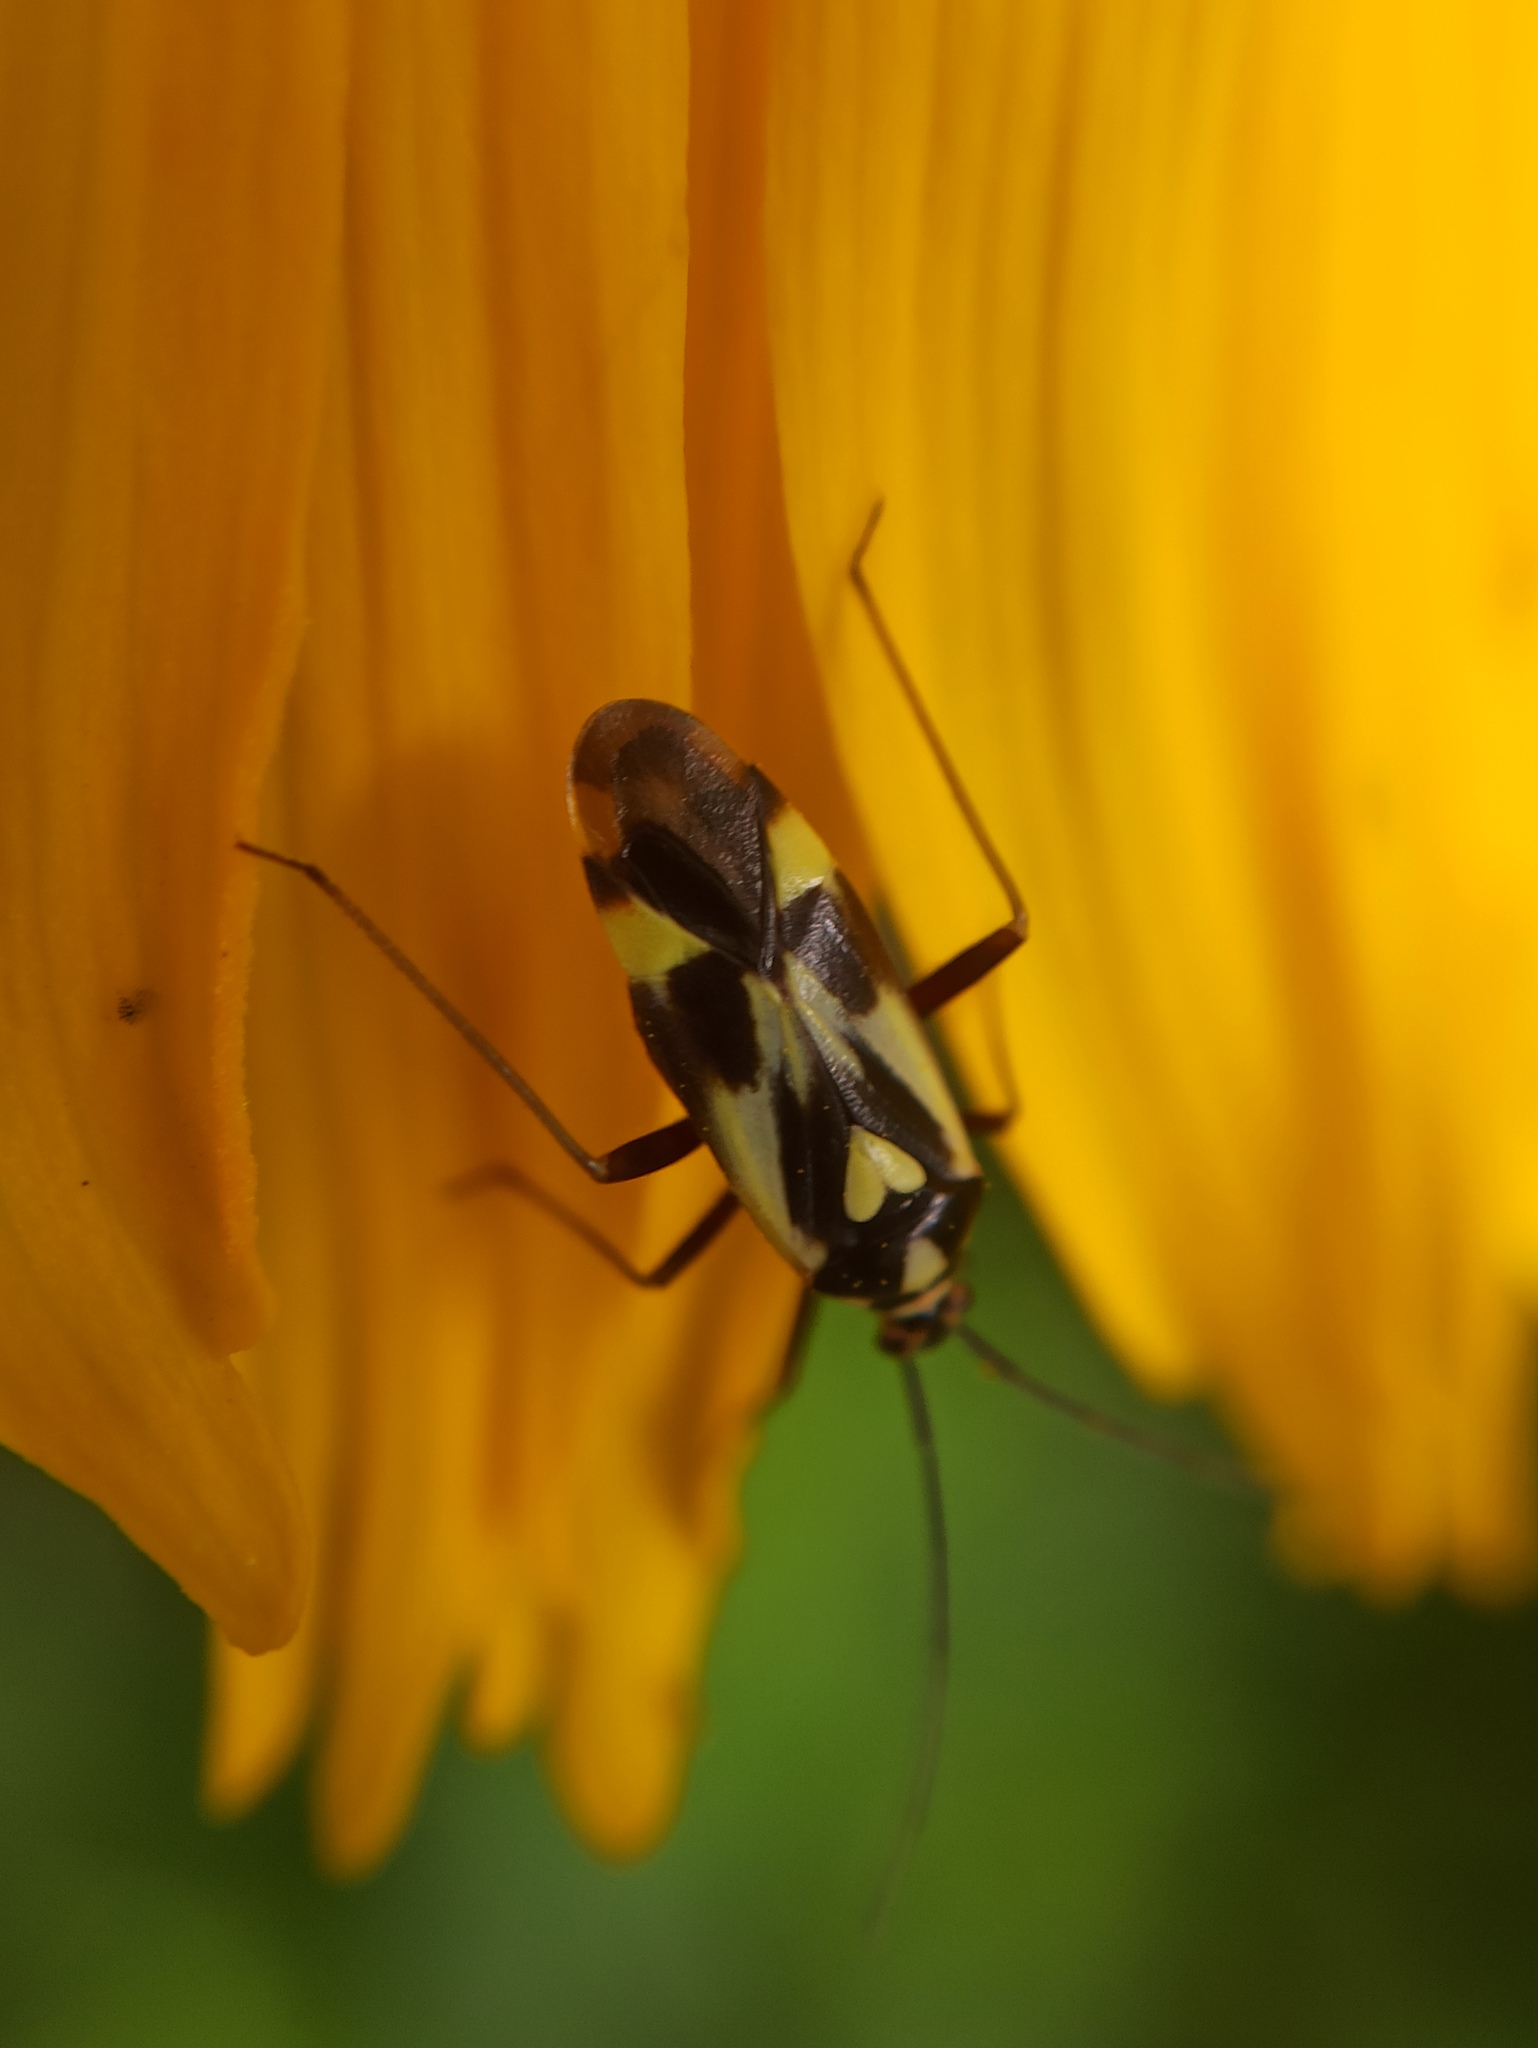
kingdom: Animalia
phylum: Arthropoda
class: Insecta
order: Hemiptera
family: Miridae
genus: Grypocoris
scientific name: Grypocoris sexguttatus
